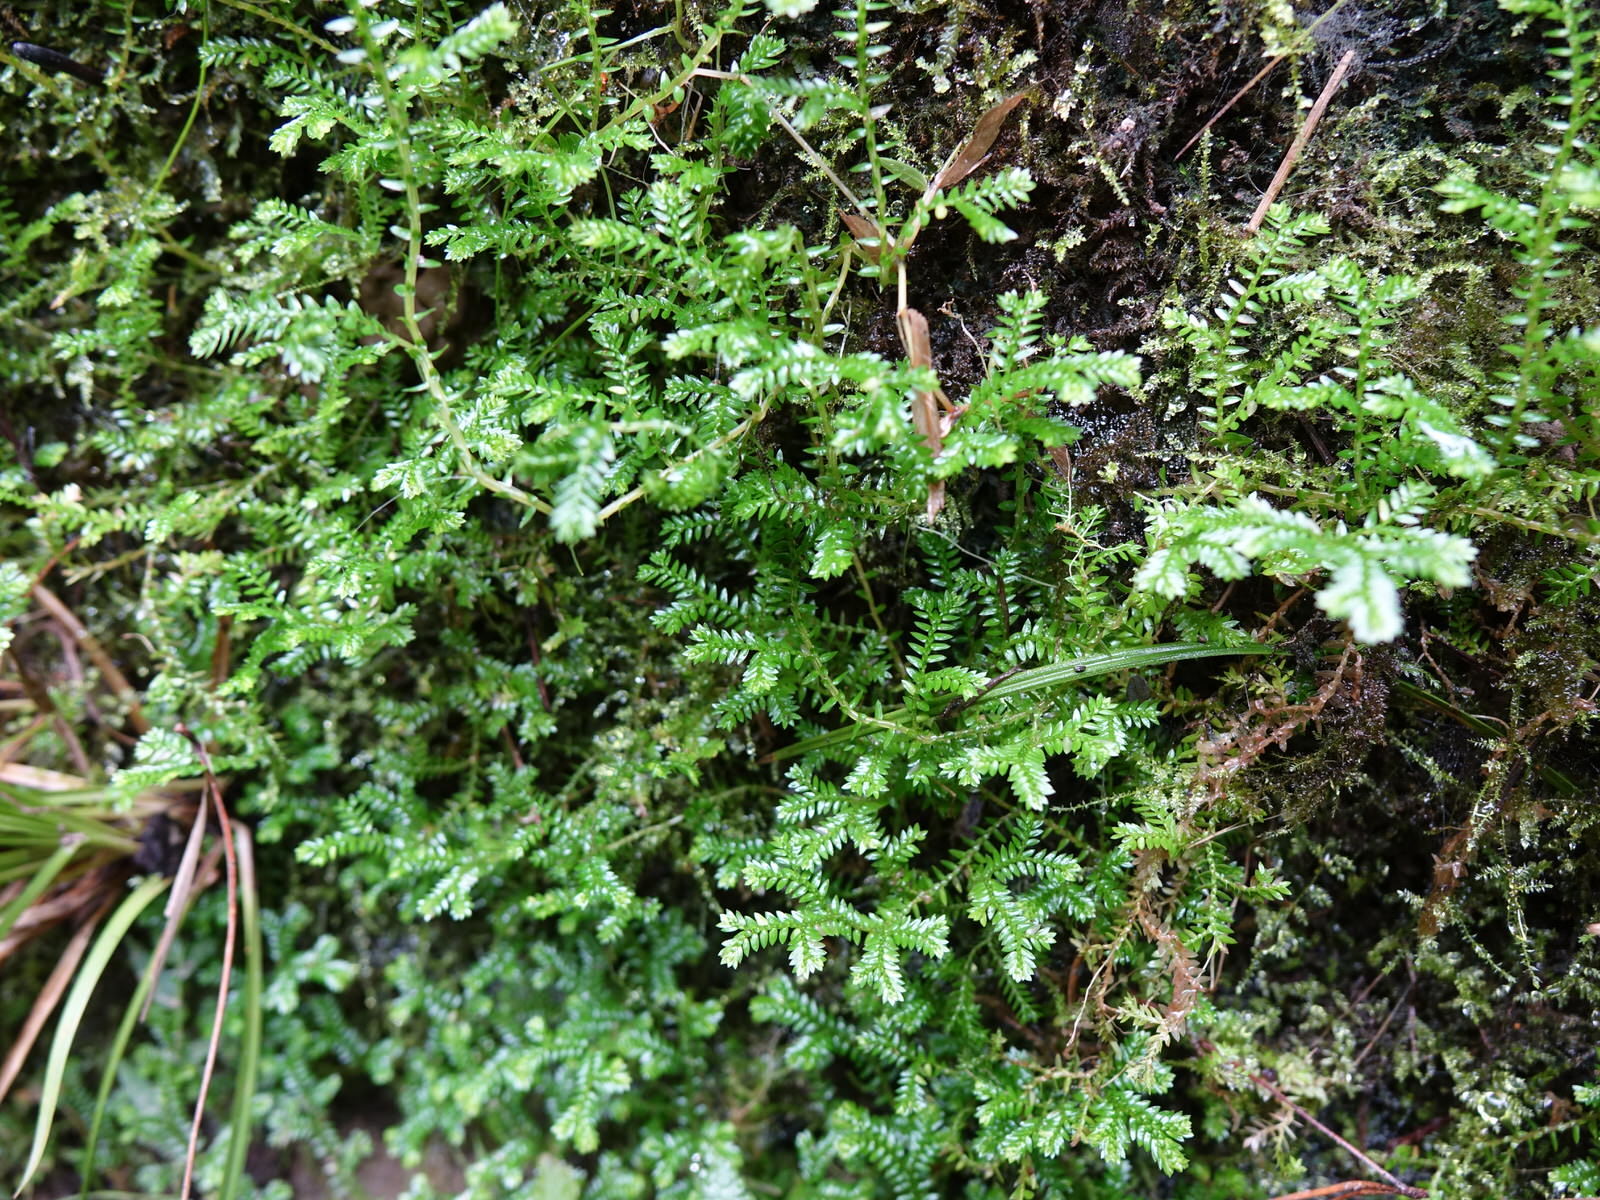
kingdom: Plantae
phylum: Tracheophyta
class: Lycopodiopsida
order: Selaginellales
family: Selaginellaceae
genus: Selaginella
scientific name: Selaginella kraussiana
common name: Krauss' spikemoss
